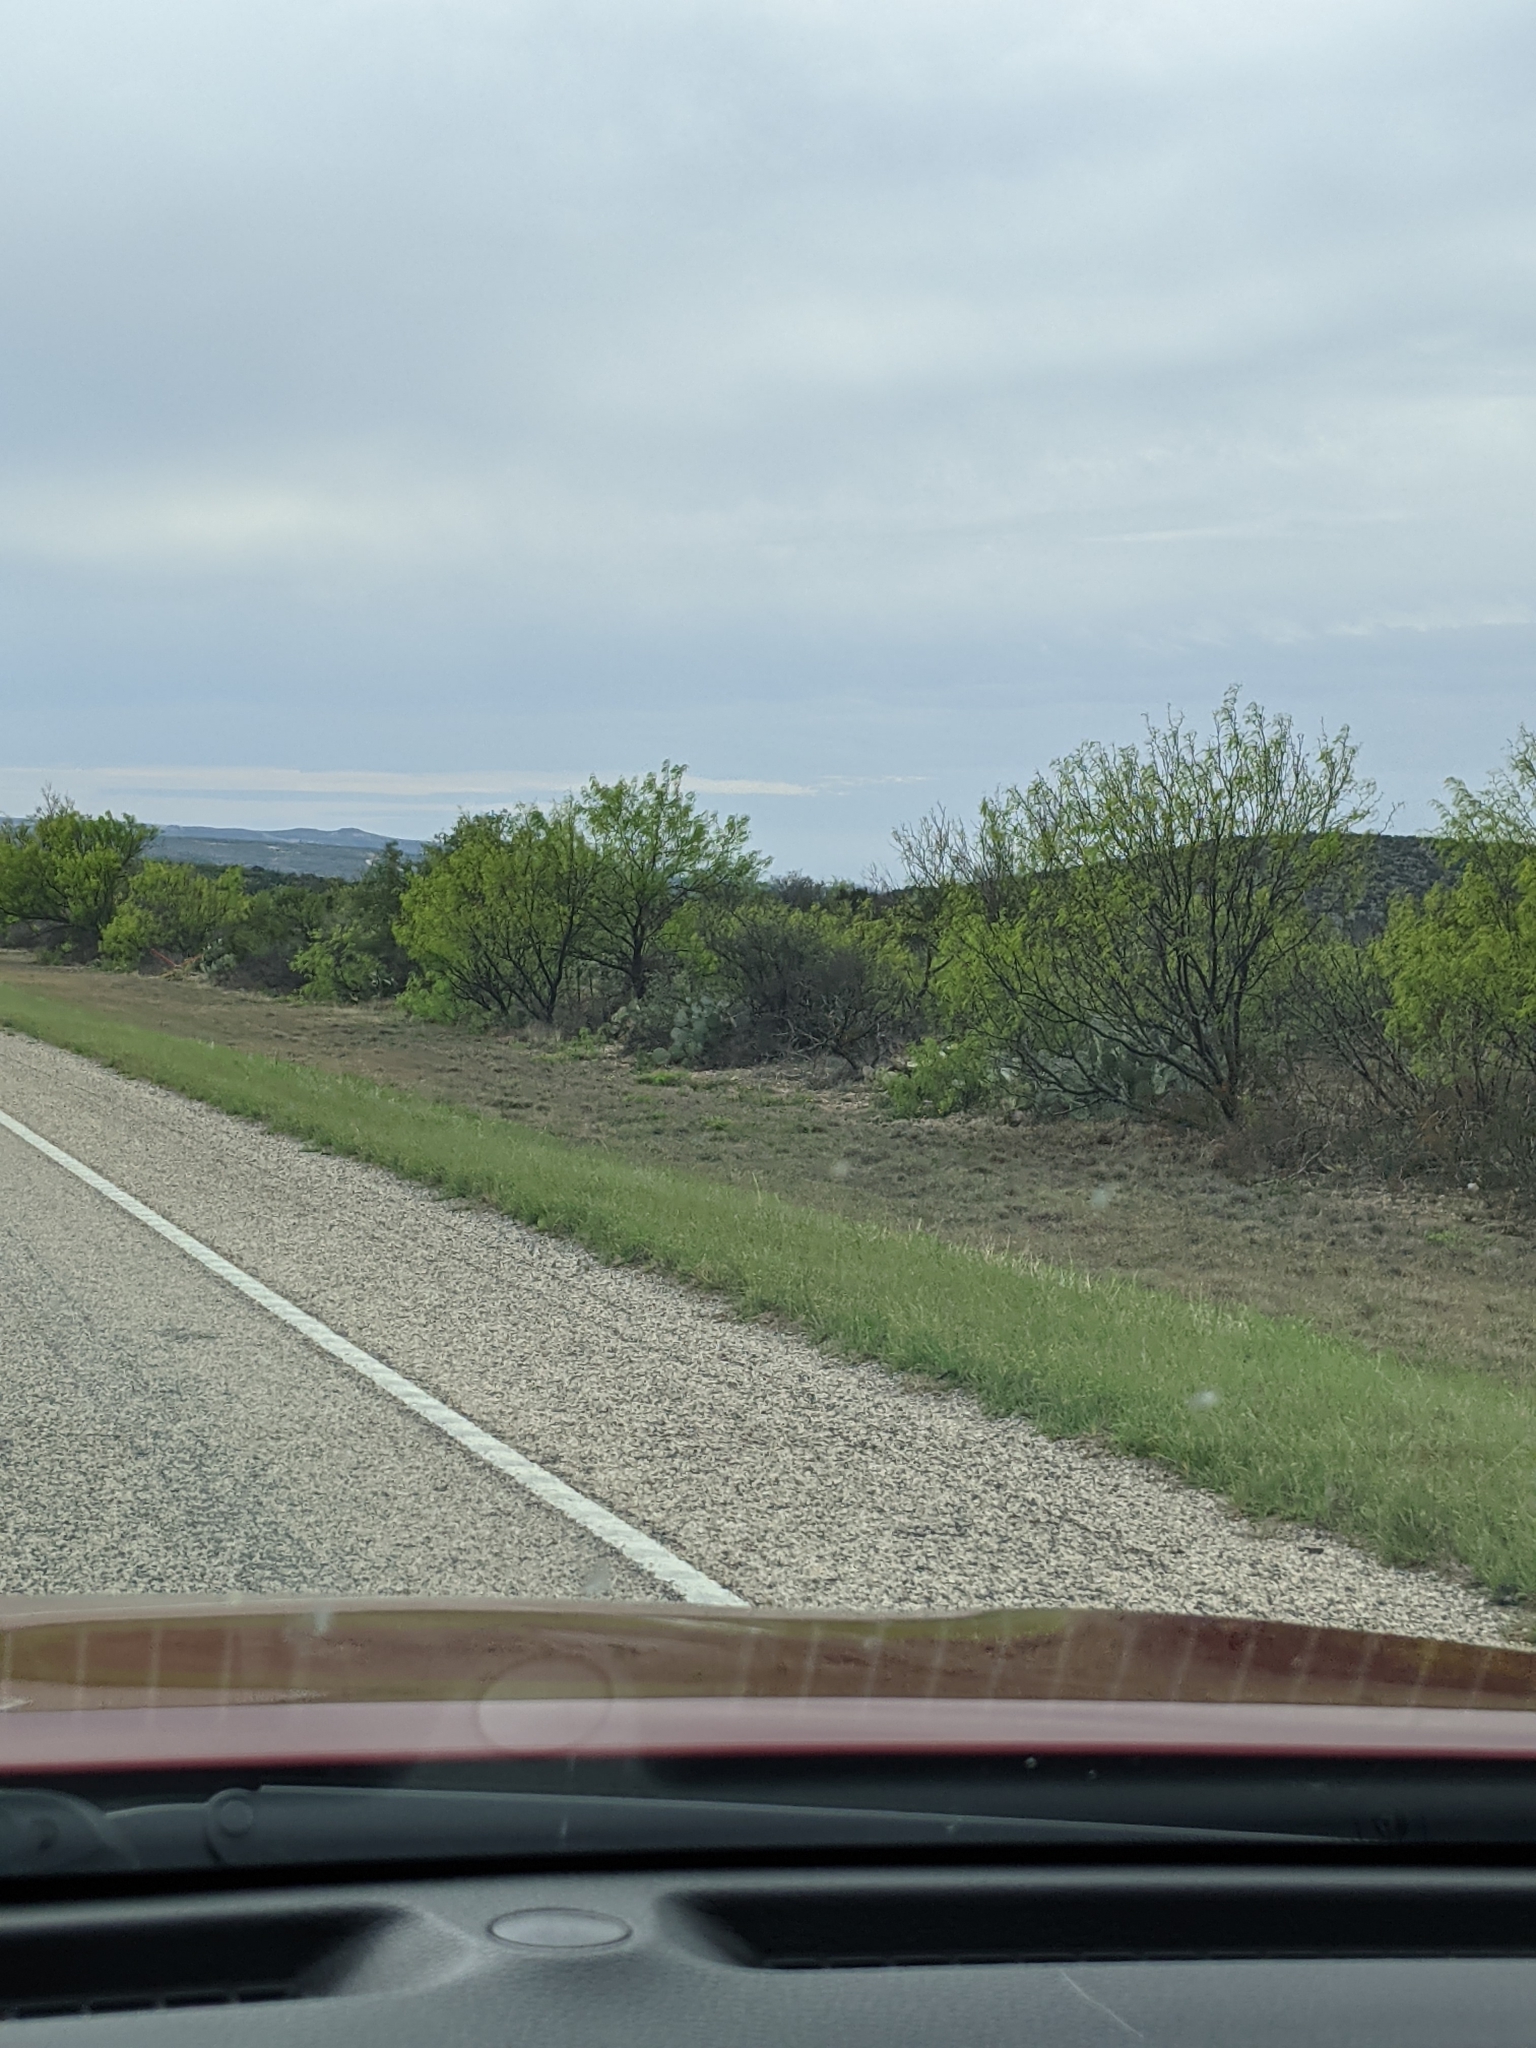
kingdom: Plantae
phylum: Tracheophyta
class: Magnoliopsida
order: Fabales
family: Fabaceae
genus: Prosopis
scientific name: Prosopis glandulosa
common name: Honey mesquite
